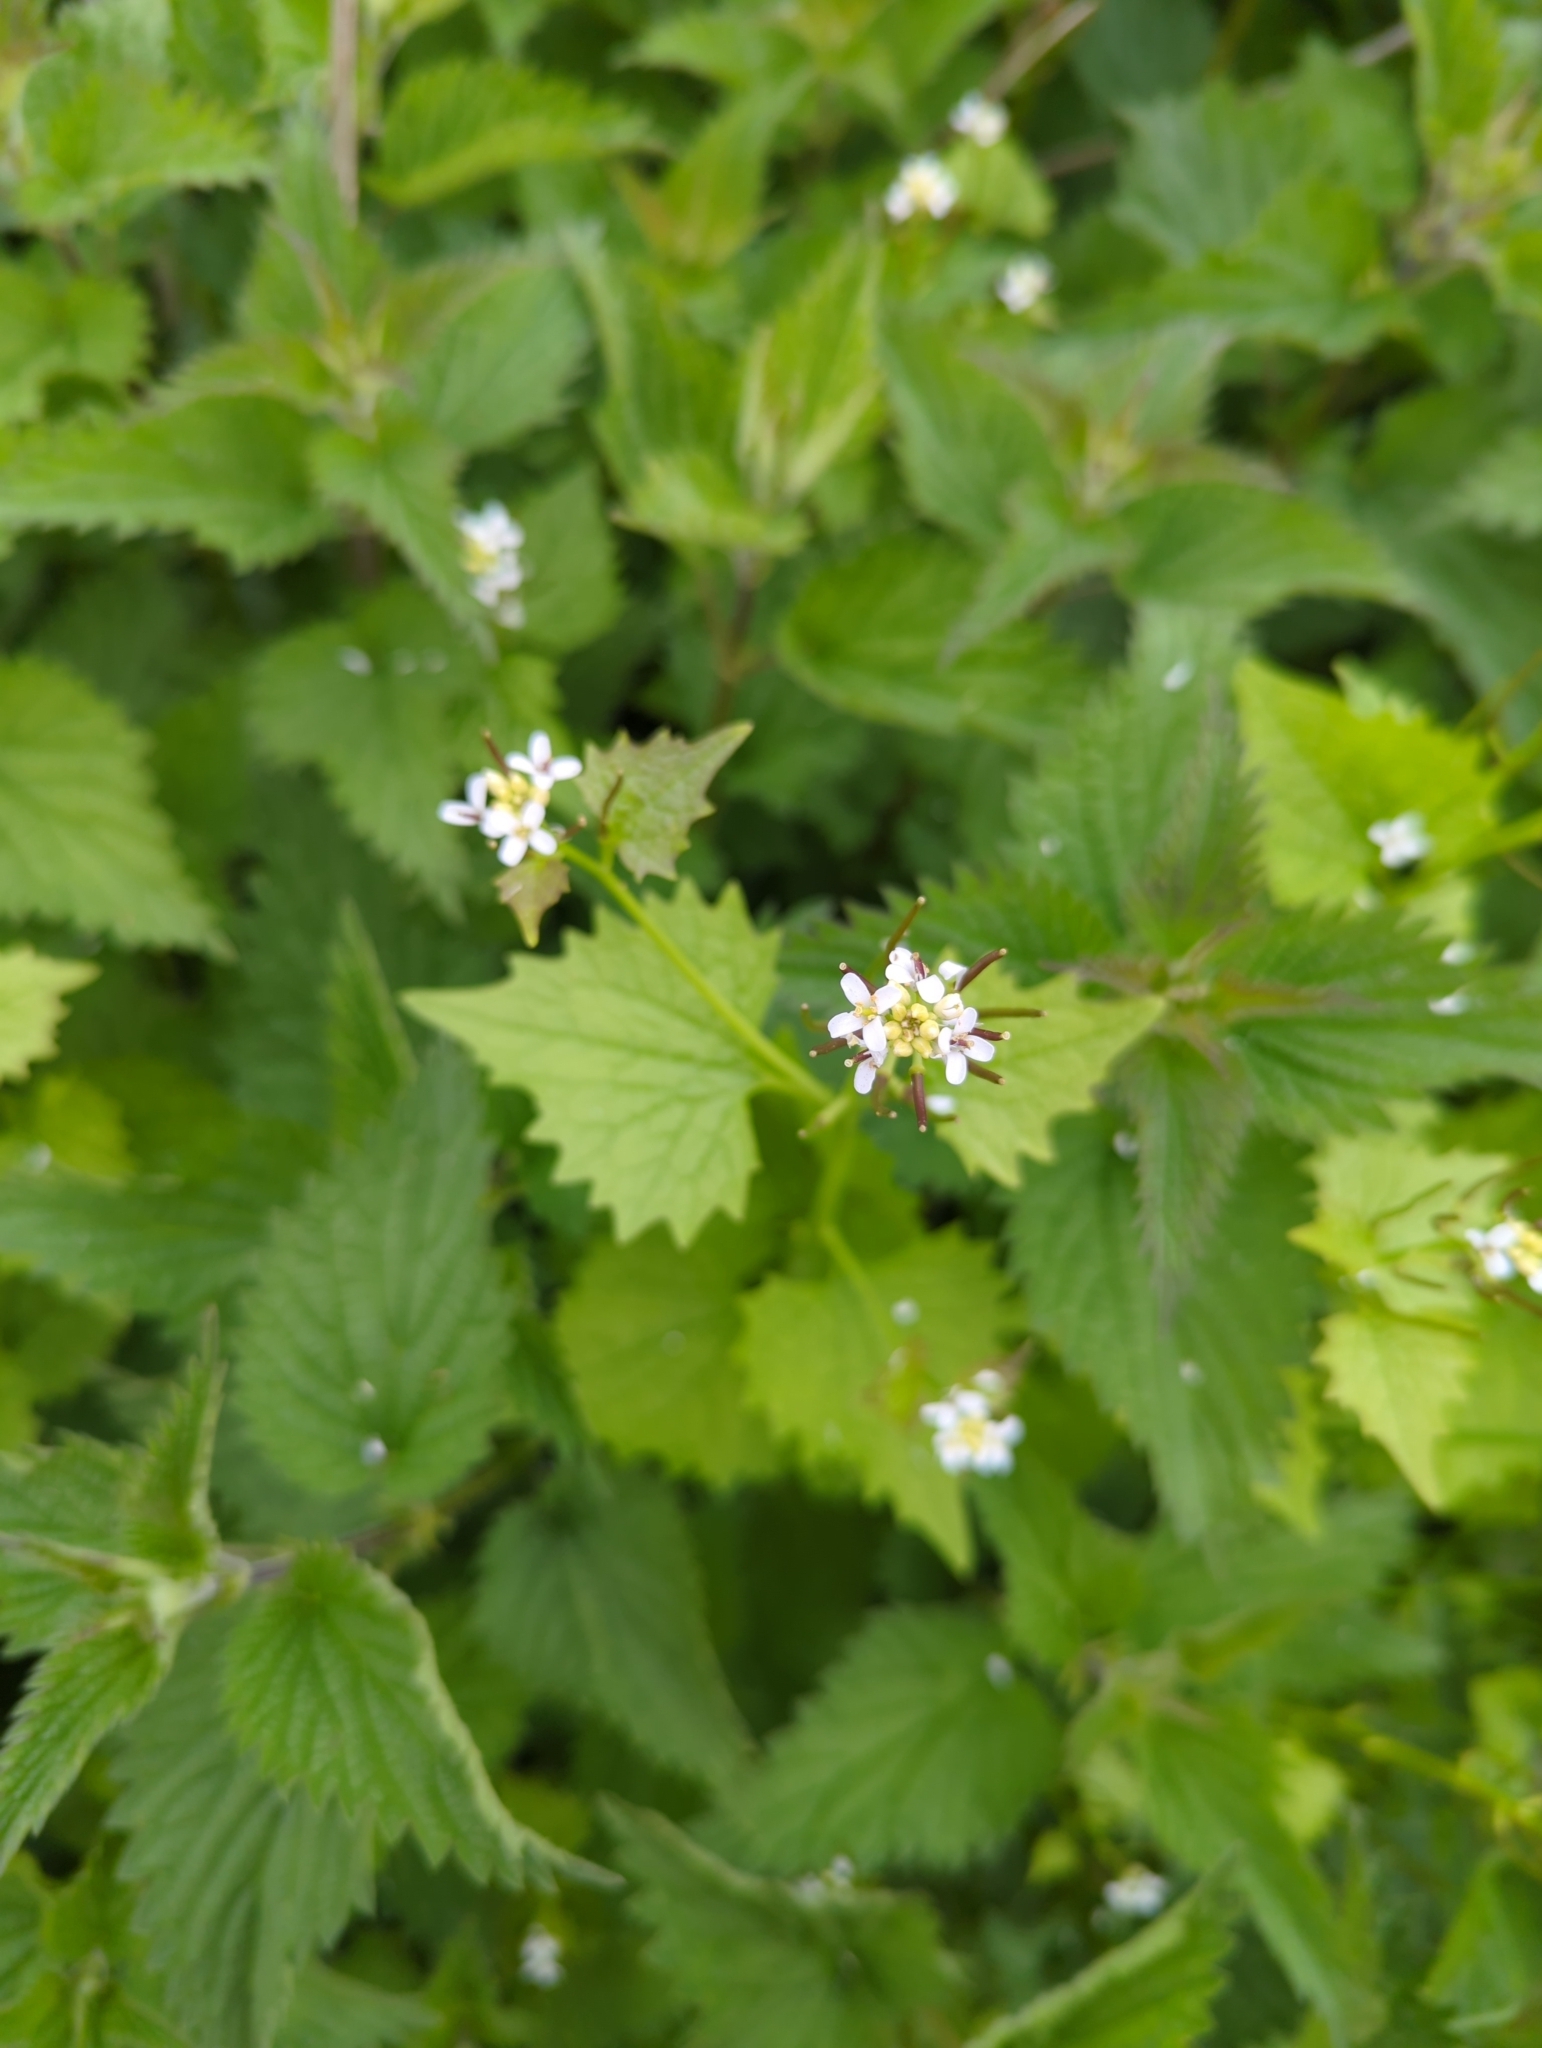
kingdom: Plantae
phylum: Tracheophyta
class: Magnoliopsida
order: Brassicales
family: Brassicaceae
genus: Alliaria
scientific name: Alliaria petiolata
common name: Garlic mustard
